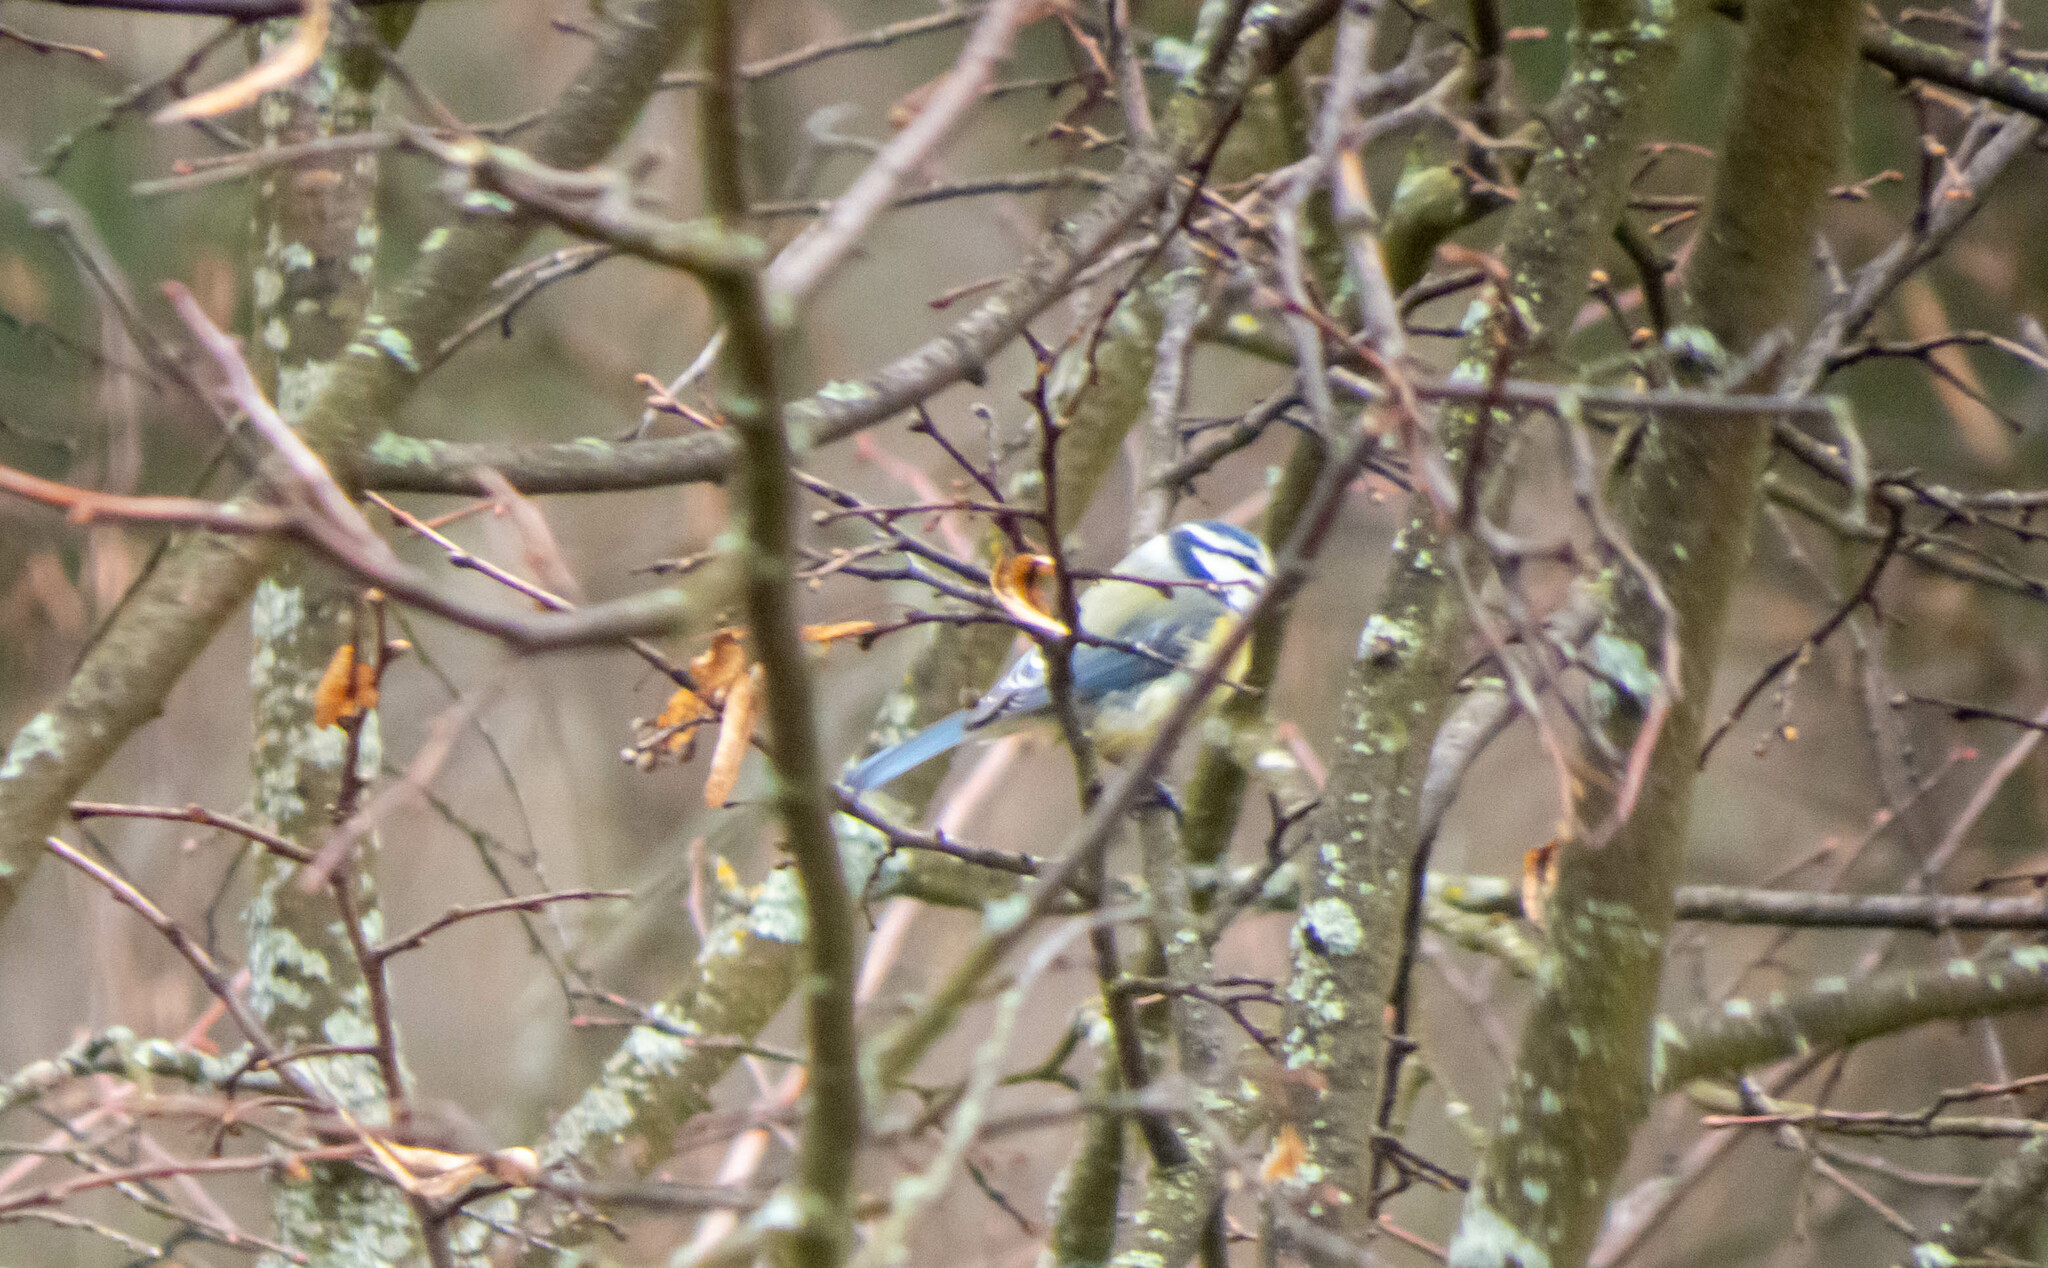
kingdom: Animalia
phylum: Chordata
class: Aves
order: Passeriformes
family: Paridae
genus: Cyanistes
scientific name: Cyanistes caeruleus
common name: Eurasian blue tit
